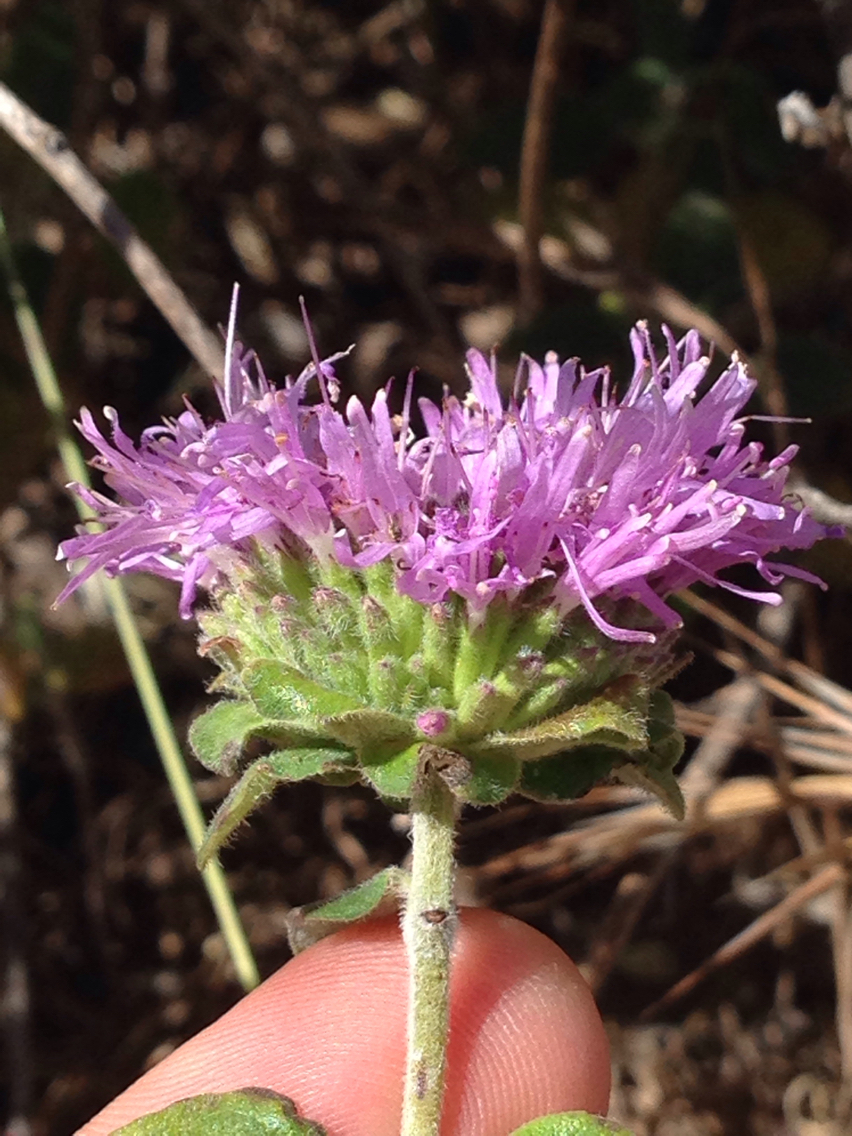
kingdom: Plantae
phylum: Tracheophyta
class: Magnoliopsida
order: Lamiales
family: Lamiaceae
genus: Monardella
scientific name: Monardella odoratissima
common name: Pacific monardella
